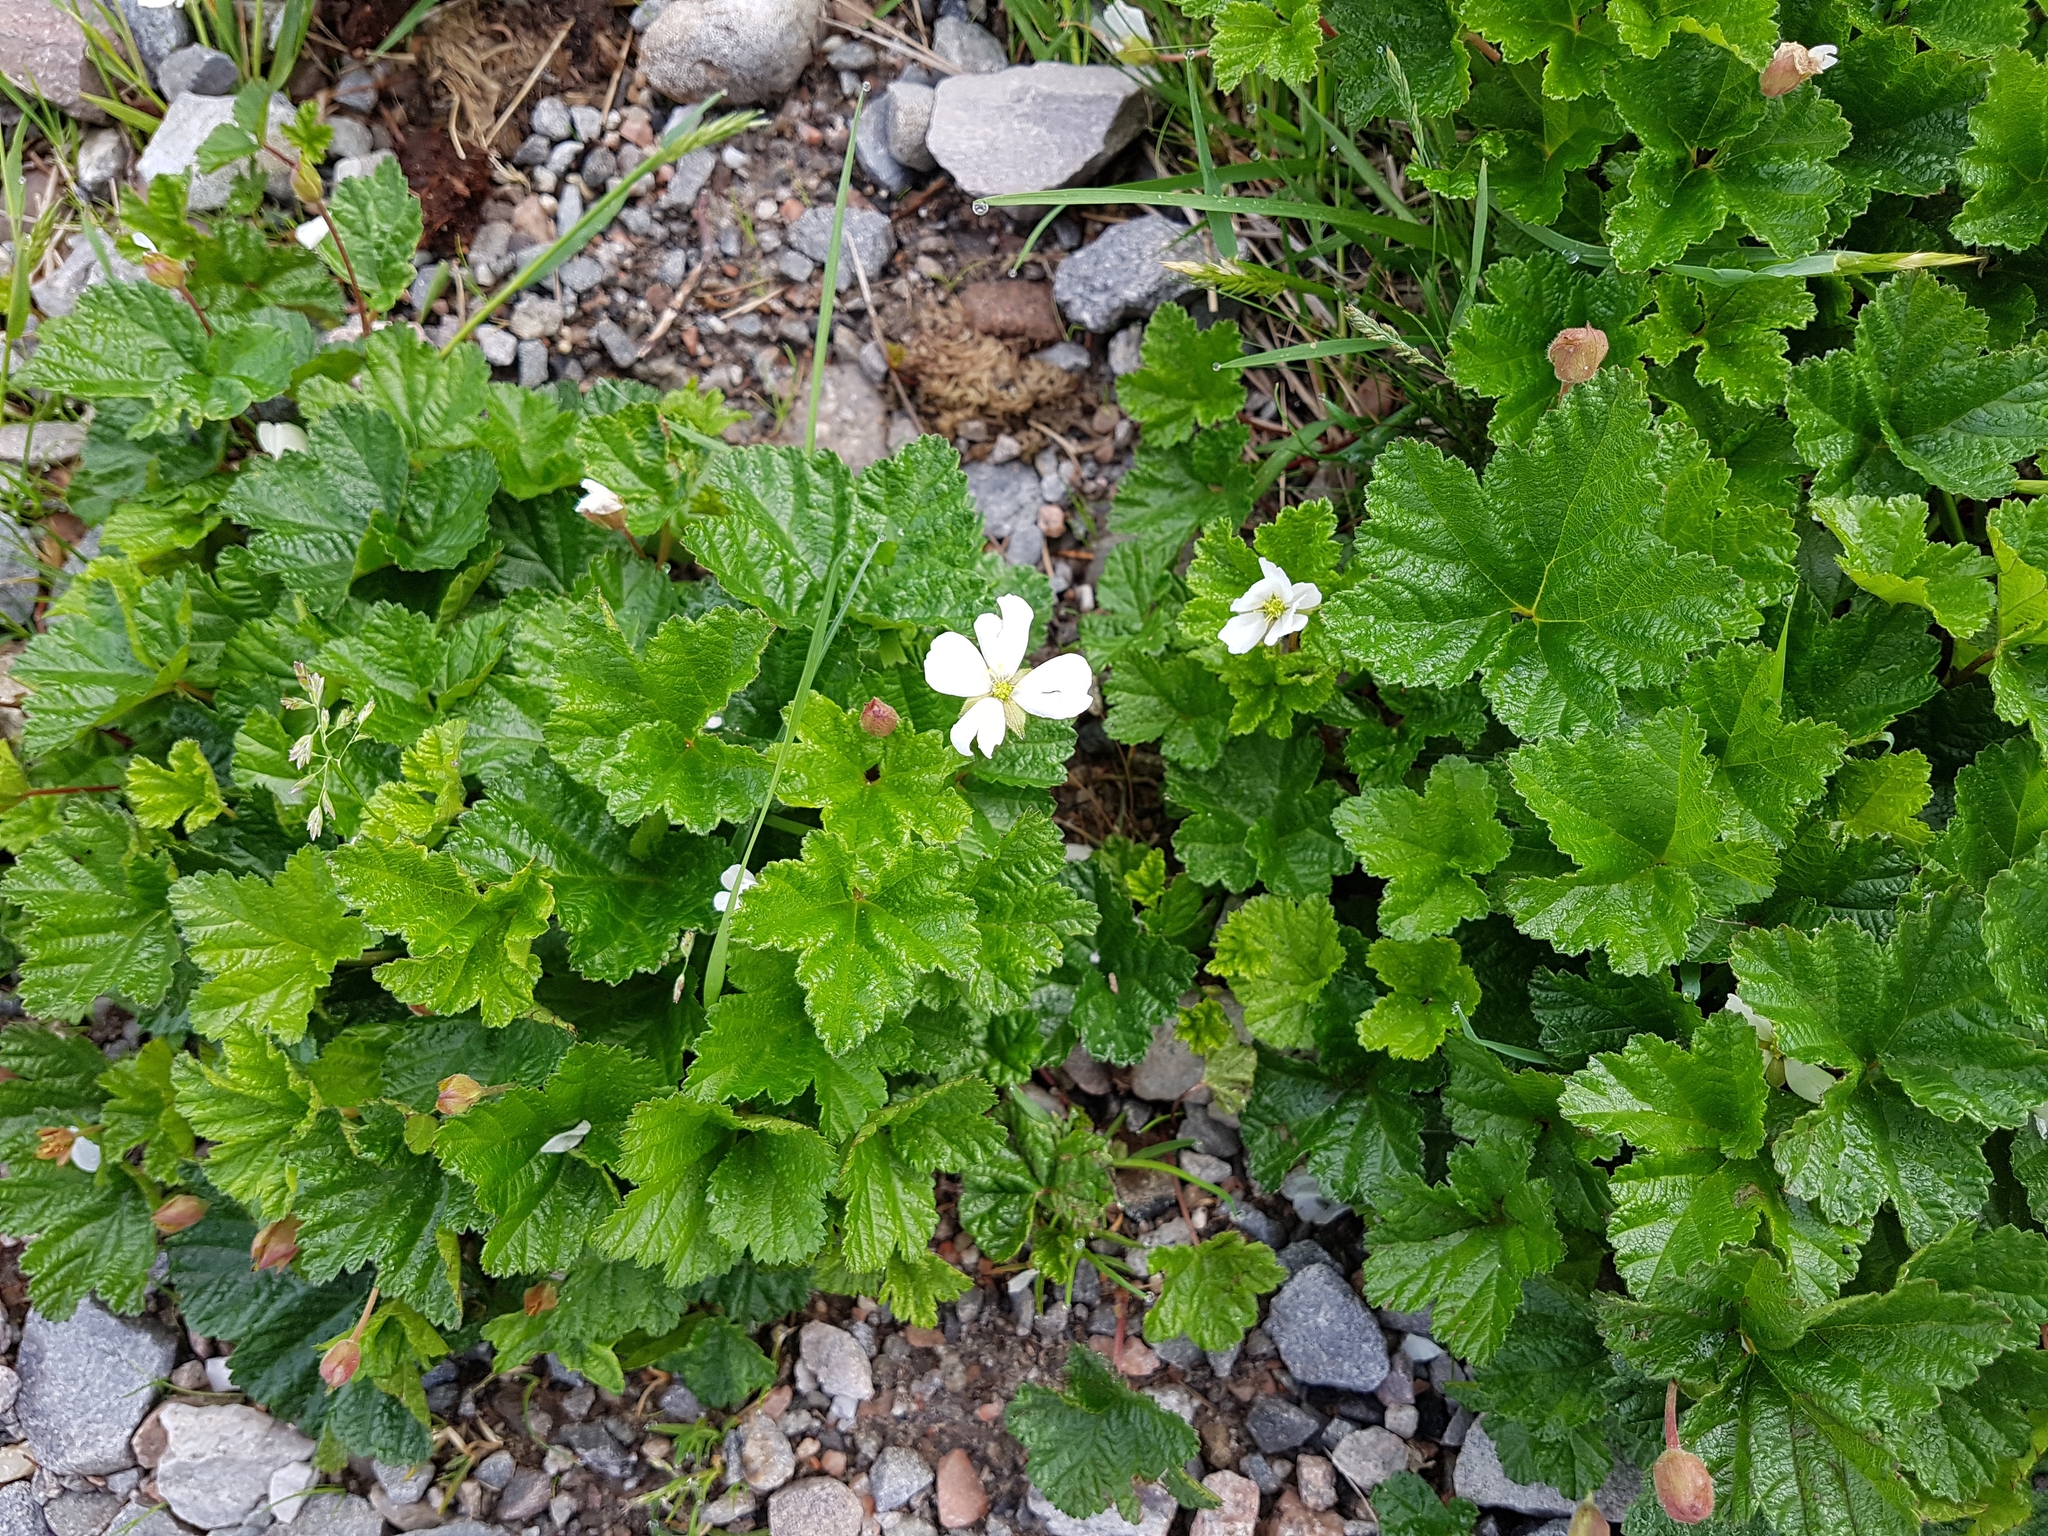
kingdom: Plantae
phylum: Tracheophyta
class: Magnoliopsida
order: Rosales
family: Rosaceae
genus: Rubus
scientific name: Rubus chamaemorus
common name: Cloudberry
